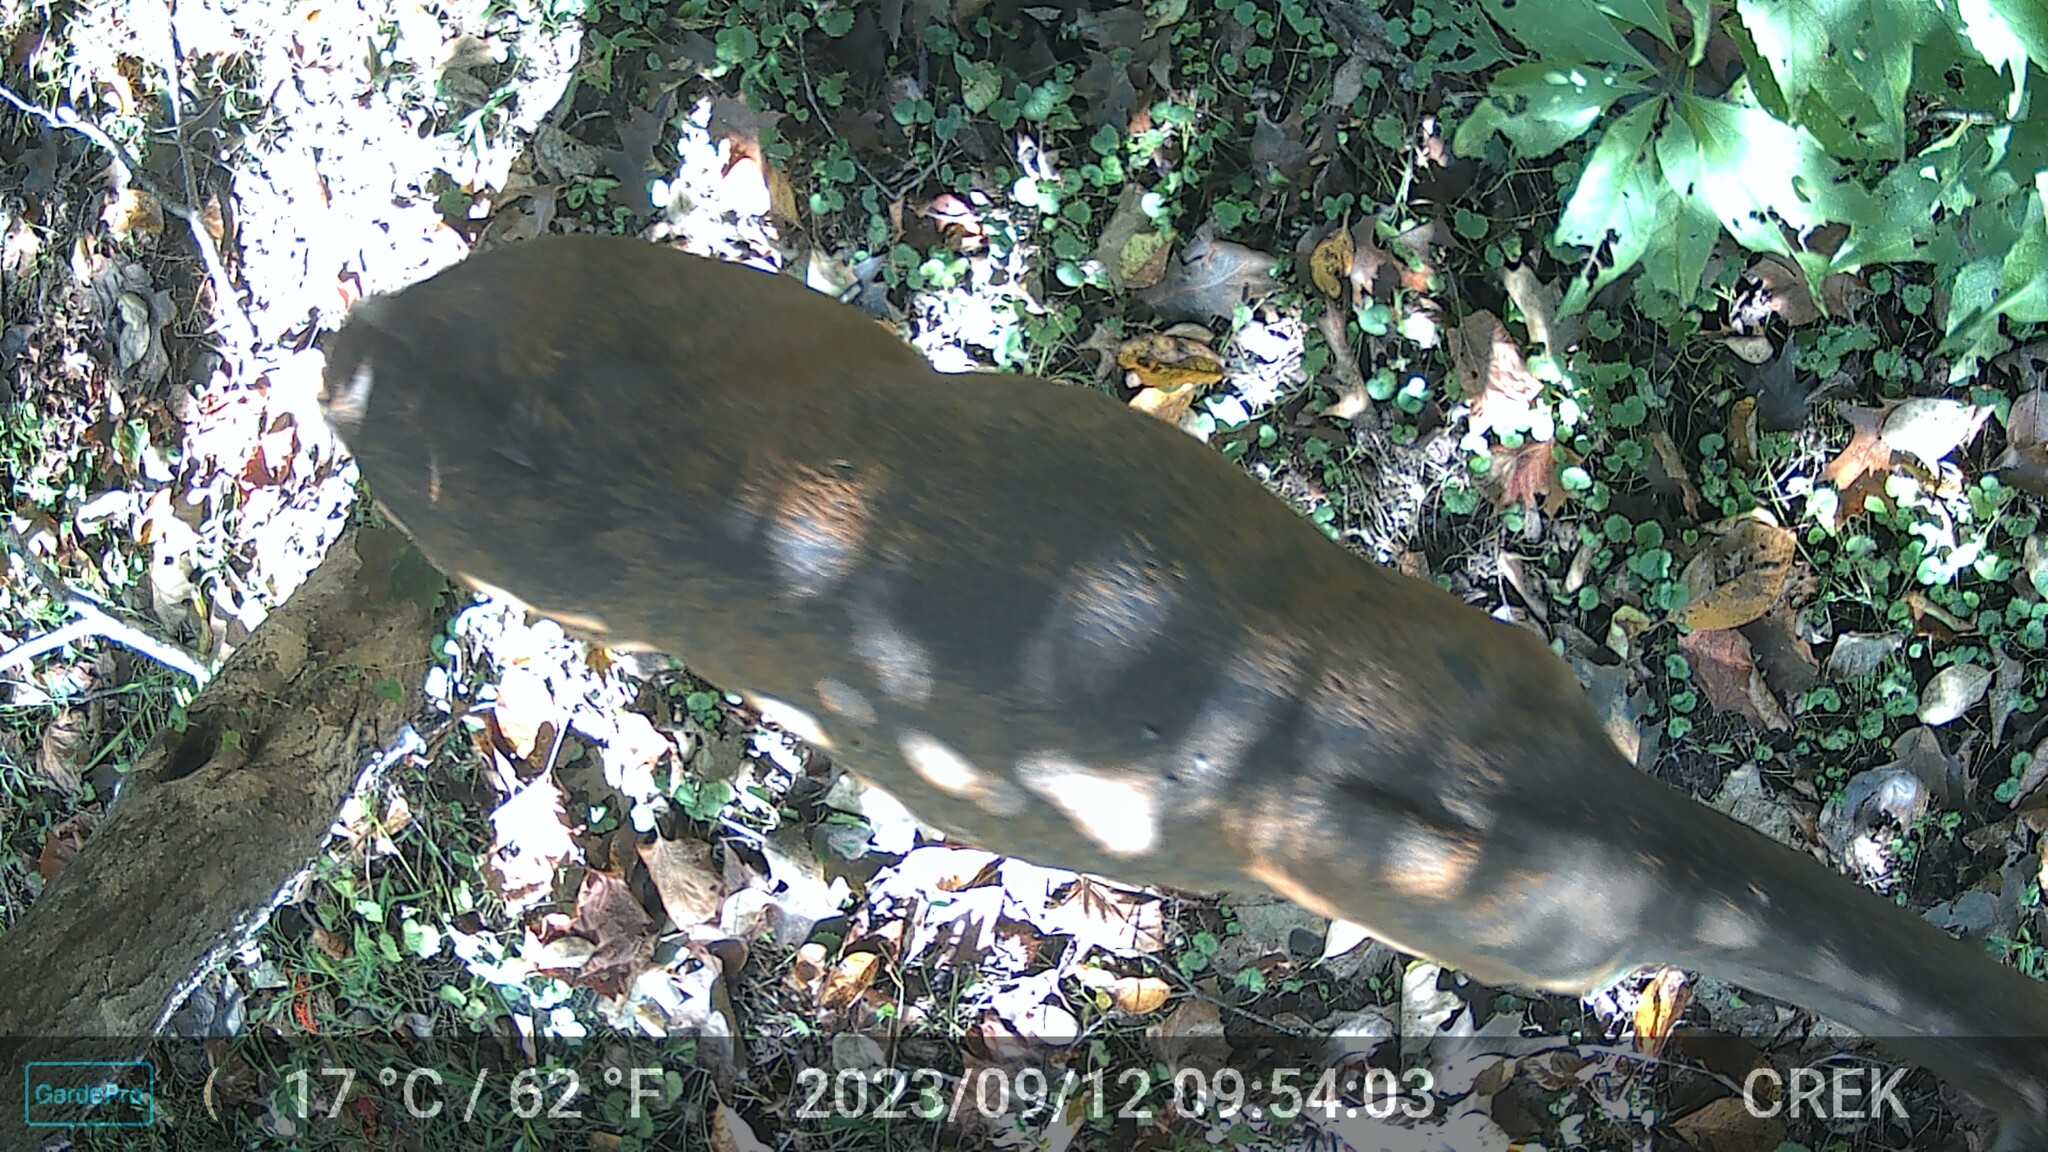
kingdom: Animalia
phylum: Chordata
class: Mammalia
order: Artiodactyla
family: Cervidae
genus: Odocoileus
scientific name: Odocoileus virginianus
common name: White-tailed deer
